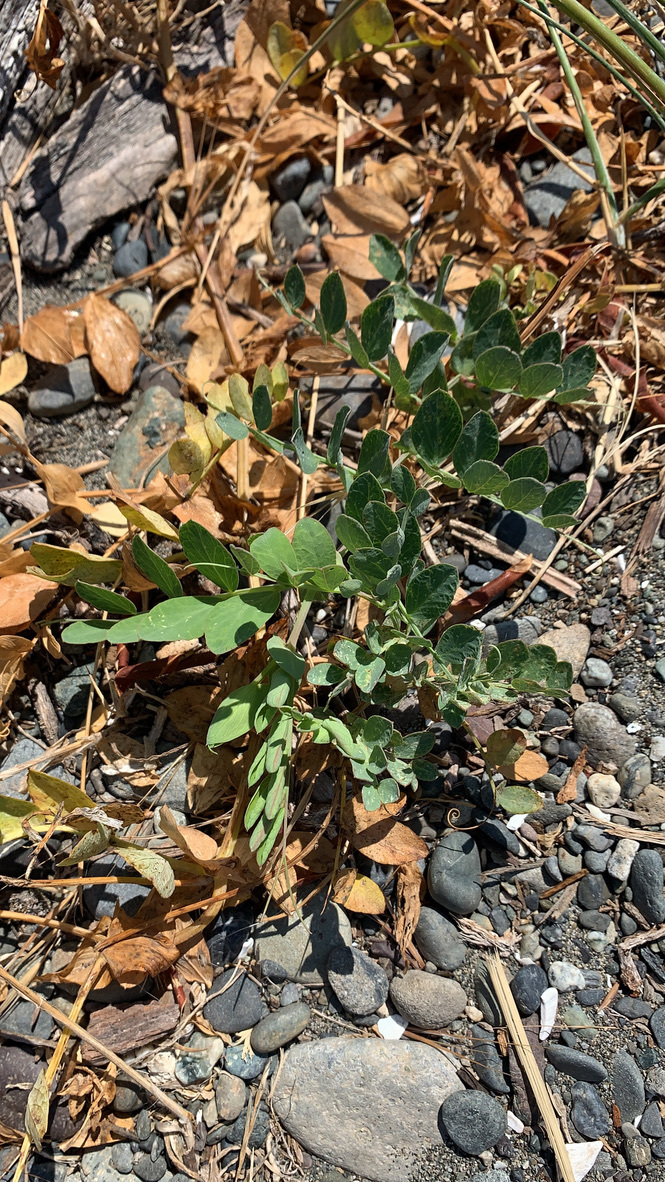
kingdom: Plantae
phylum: Tracheophyta
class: Magnoliopsida
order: Fabales
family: Fabaceae
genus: Lathyrus
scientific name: Lathyrus japonicus
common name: Sea pea
